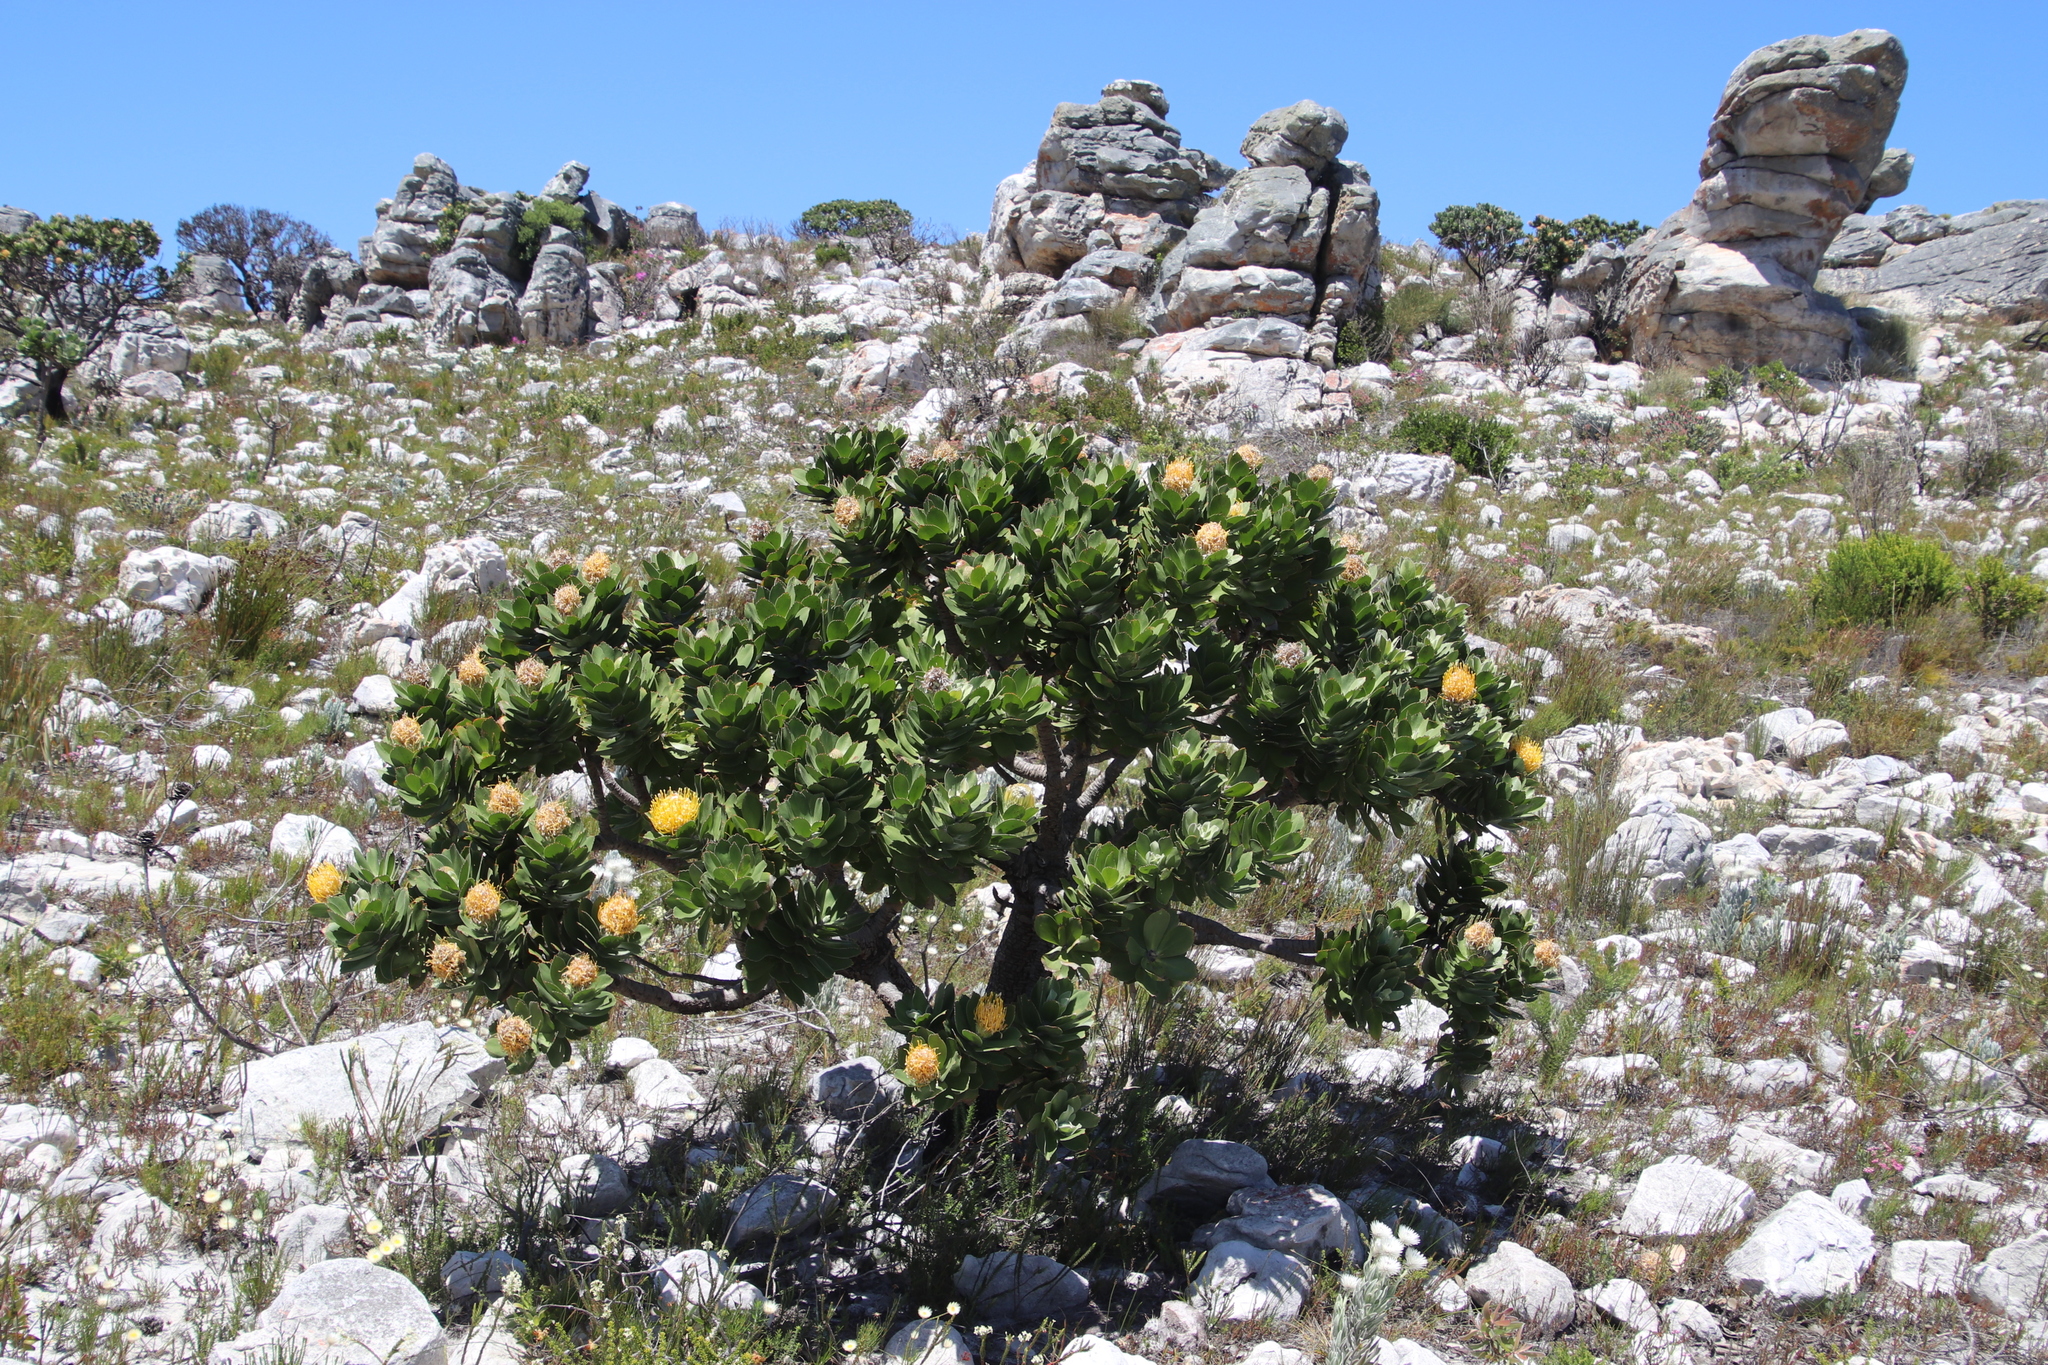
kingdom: Plantae
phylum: Tracheophyta
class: Magnoliopsida
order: Proteales
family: Proteaceae
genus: Leucospermum
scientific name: Leucospermum conocarpodendron
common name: Tree pincushion
